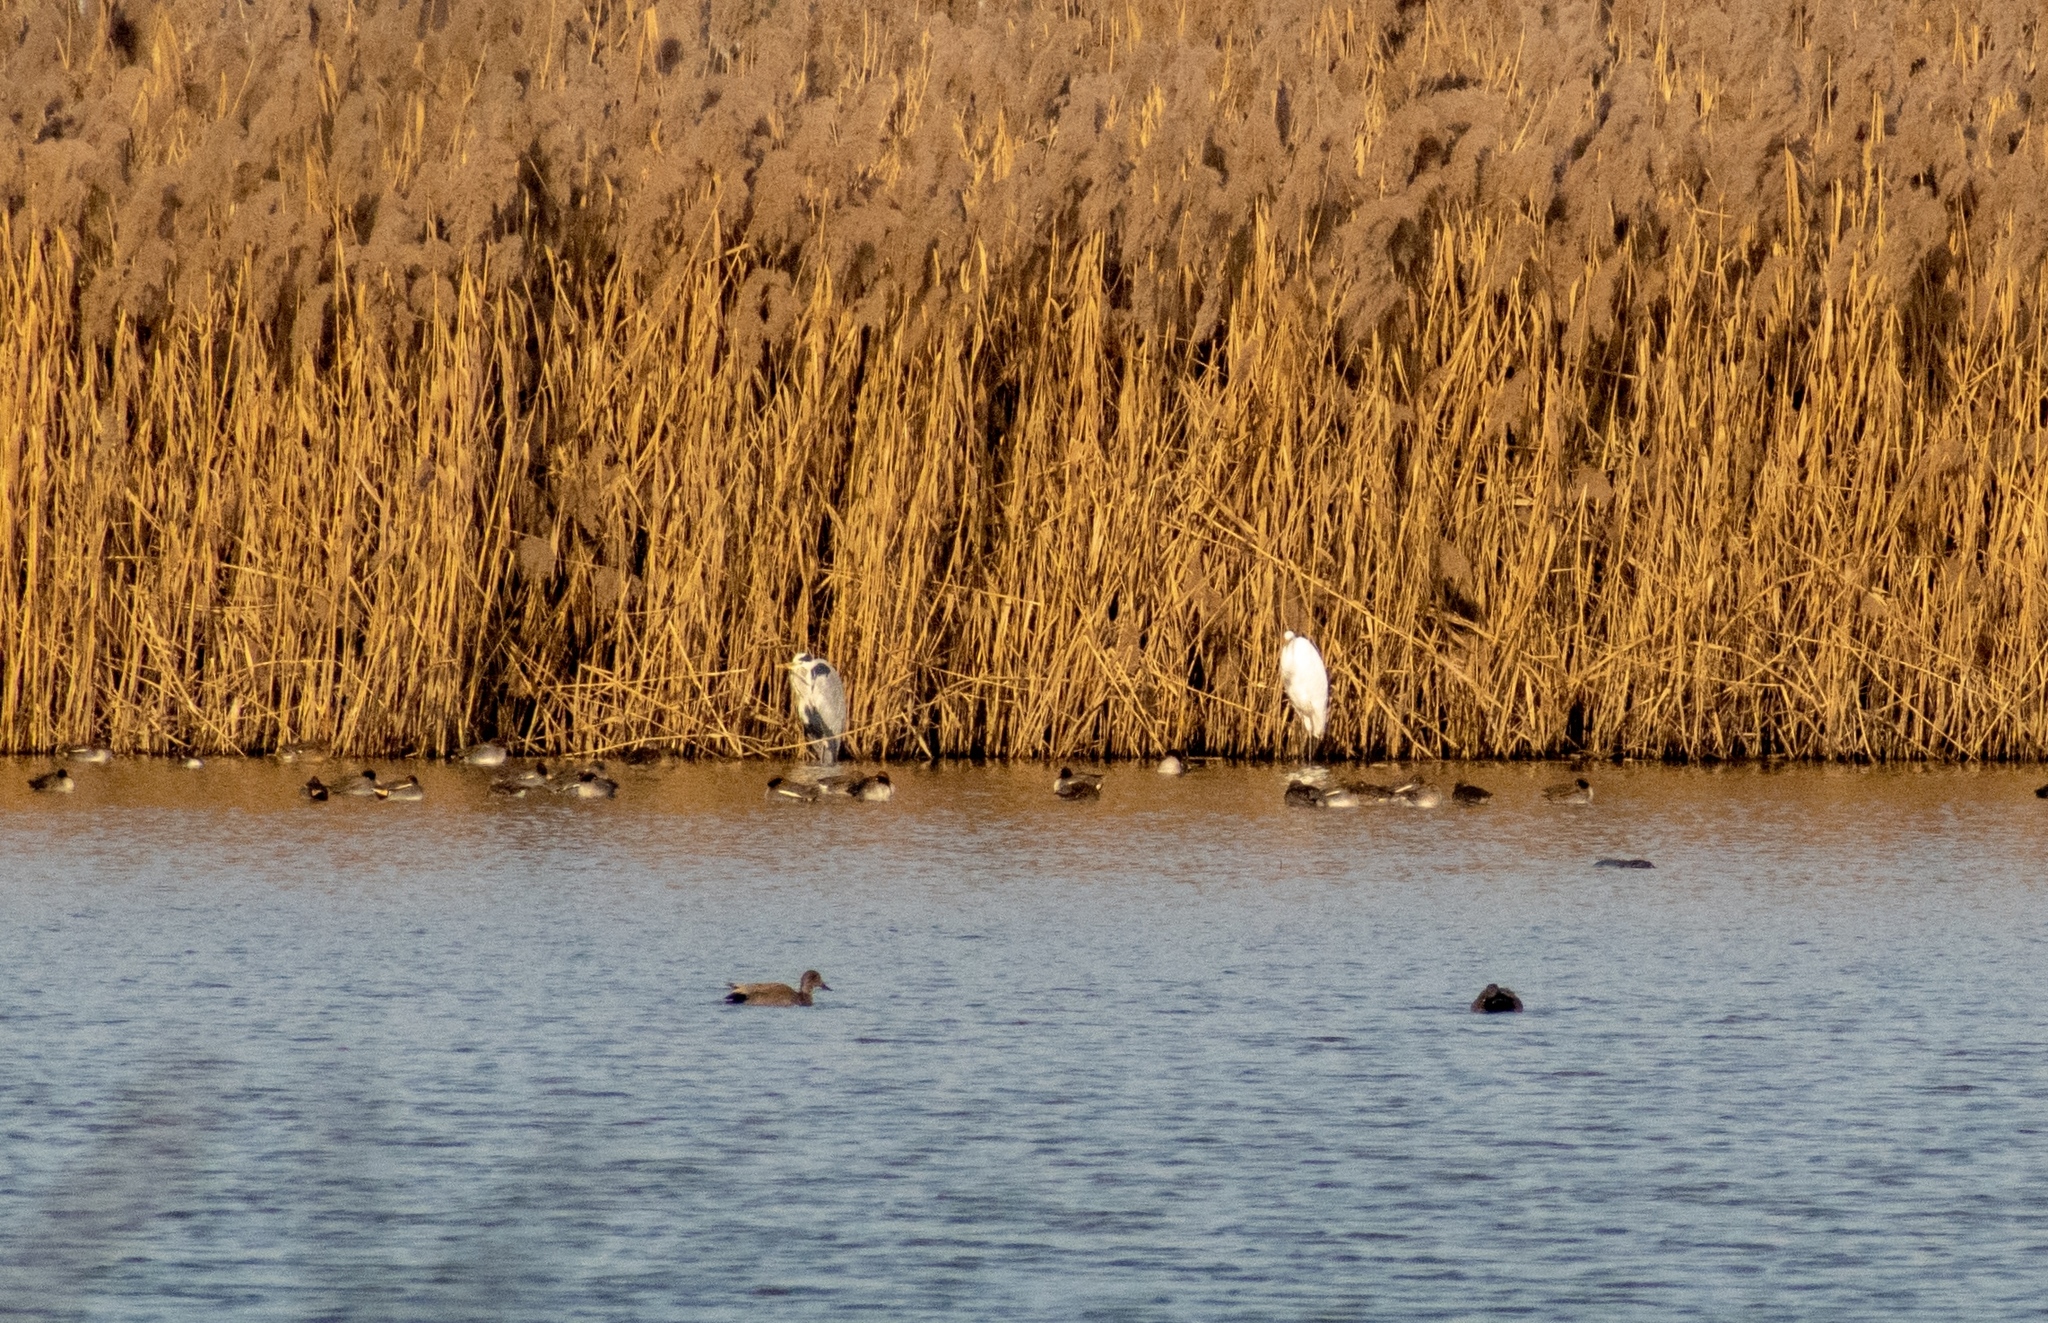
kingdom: Animalia
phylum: Chordata
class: Aves
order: Pelecaniformes
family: Ardeidae
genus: Ardea
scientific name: Ardea alba
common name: Great egret
